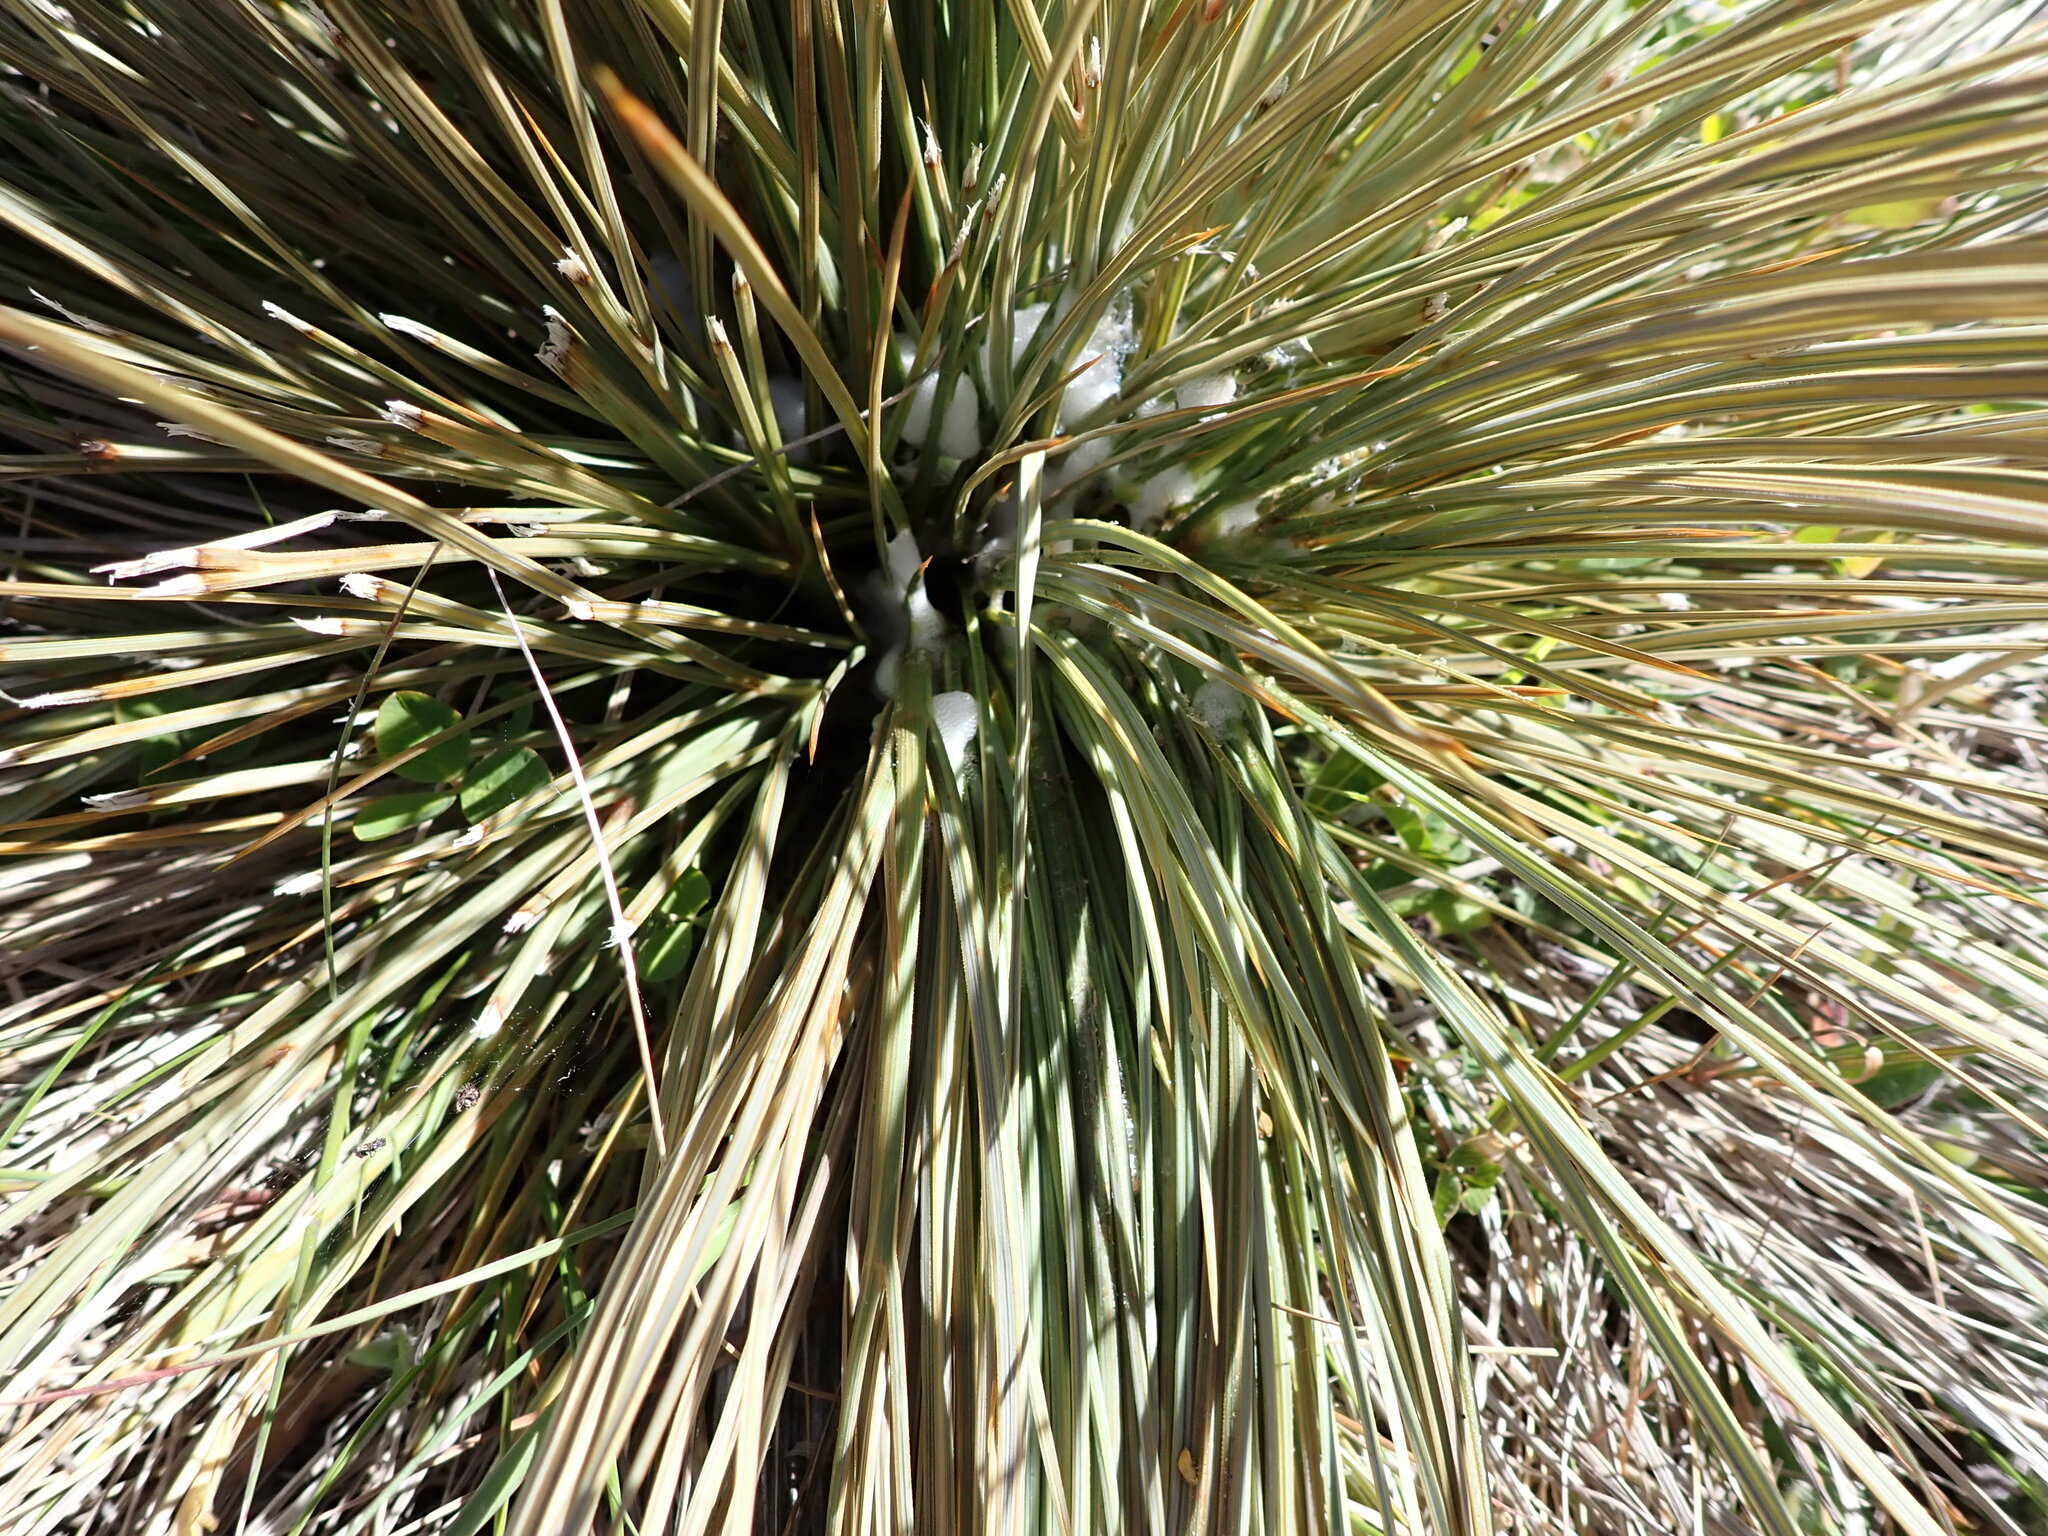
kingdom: Plantae
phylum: Tracheophyta
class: Magnoliopsida
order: Apiales
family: Apiaceae
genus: Aciphylla
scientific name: Aciphylla subflabellata
